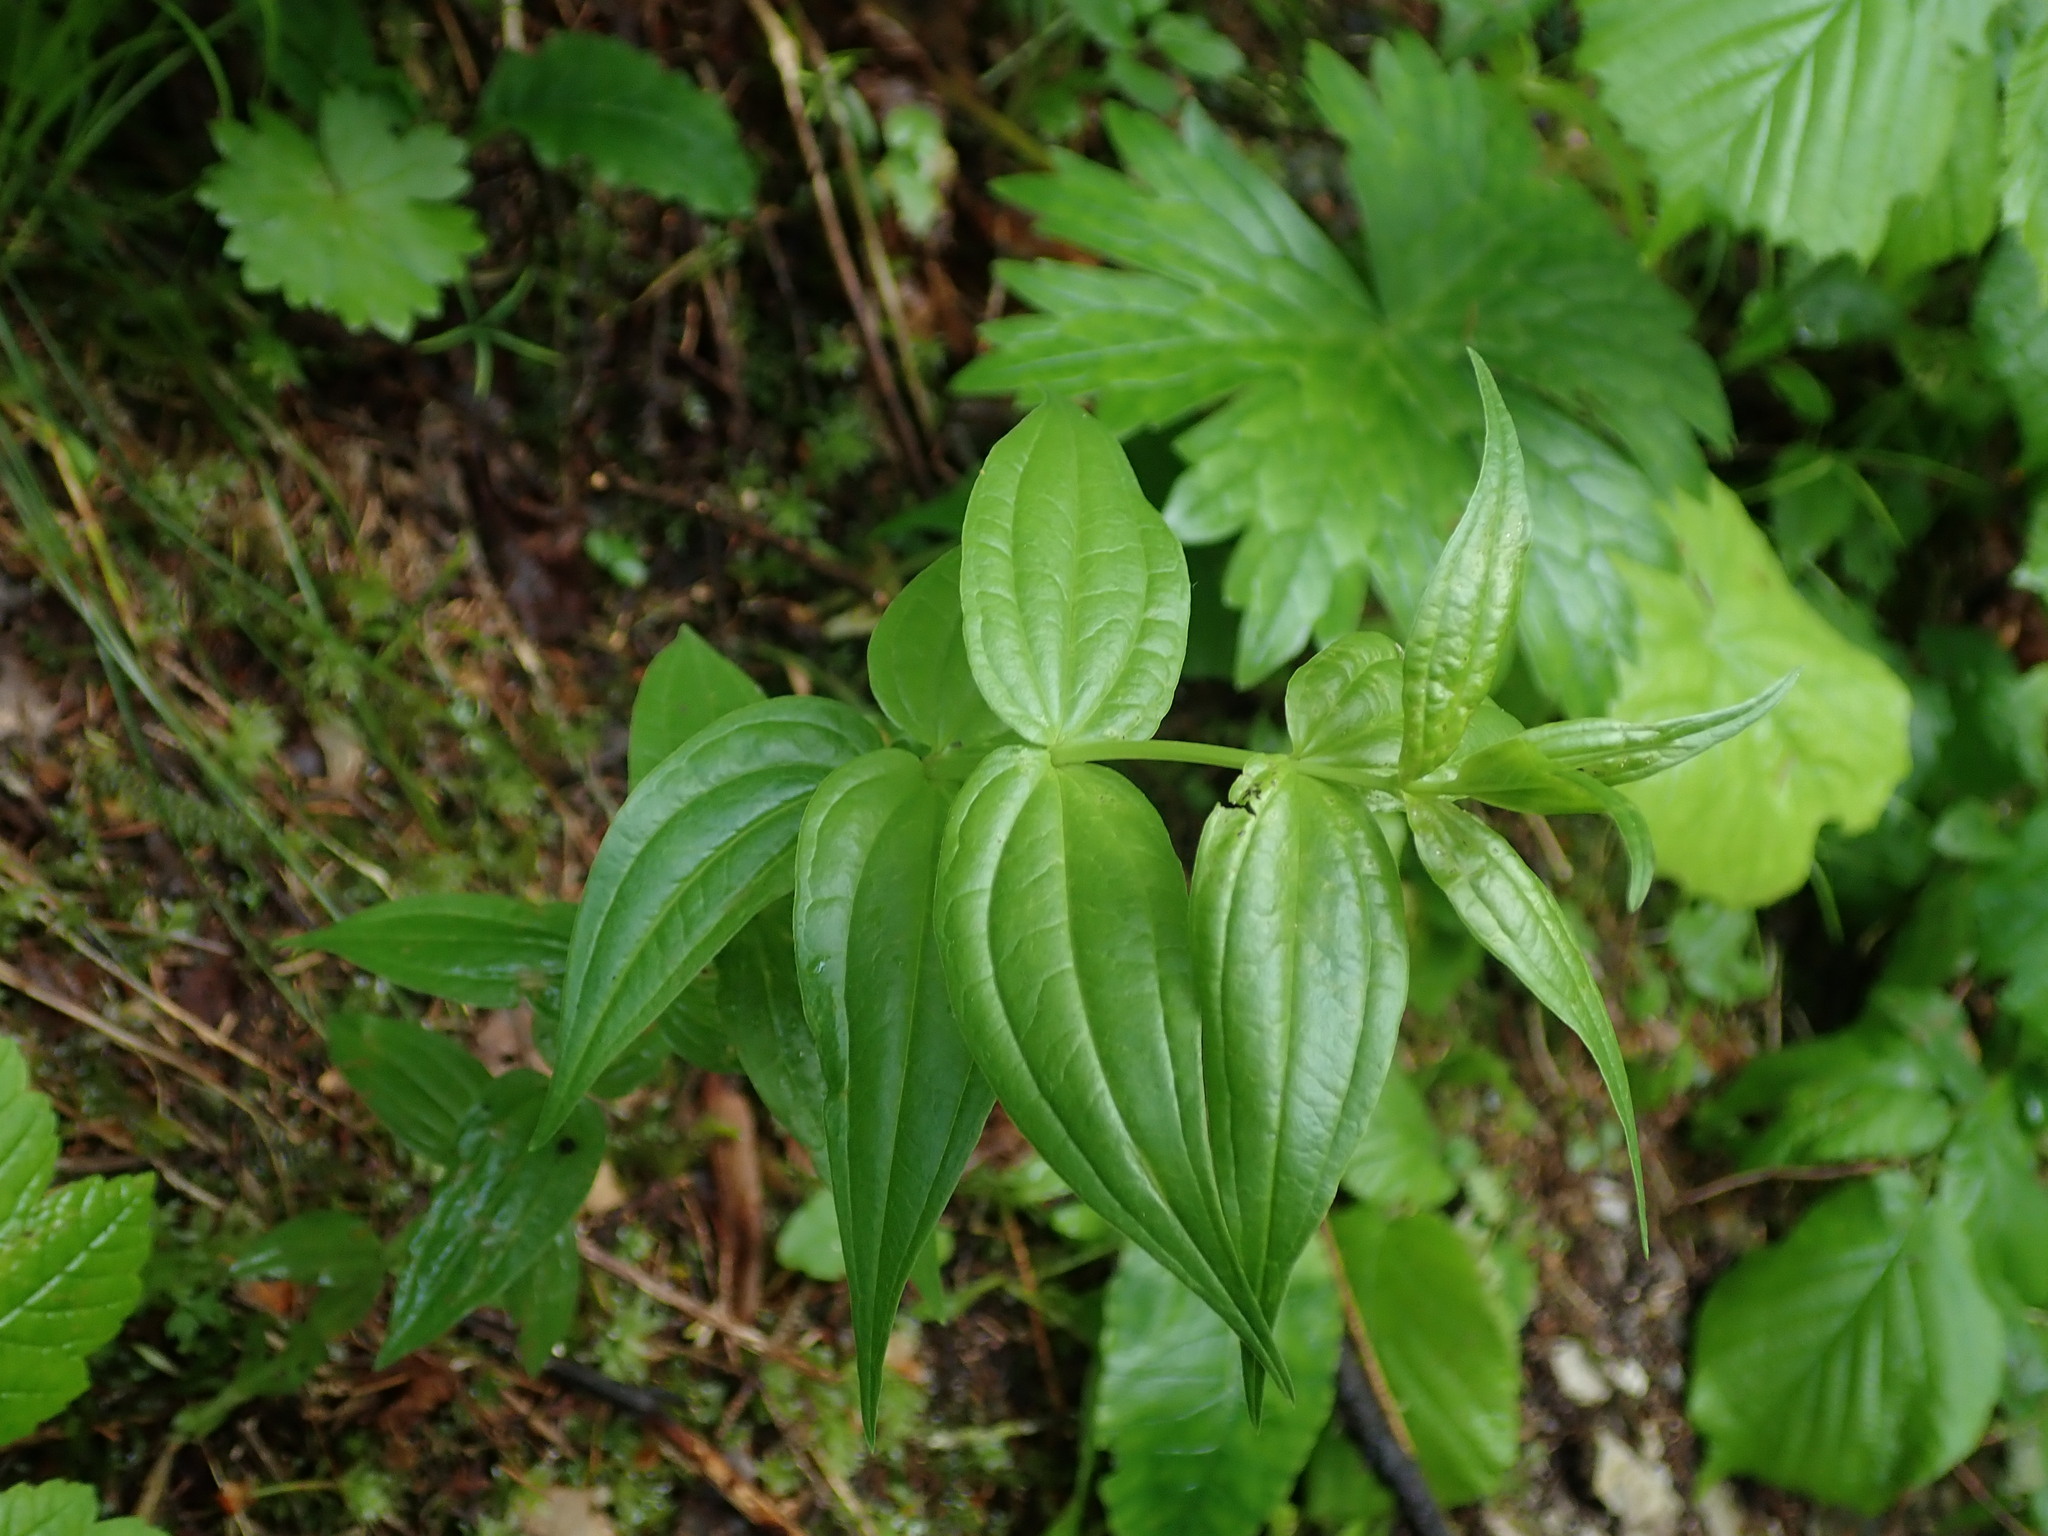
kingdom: Plantae
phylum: Tracheophyta
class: Magnoliopsida
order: Gentianales
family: Gentianaceae
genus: Gentiana
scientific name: Gentiana asclepiadea
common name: Willow gentian
